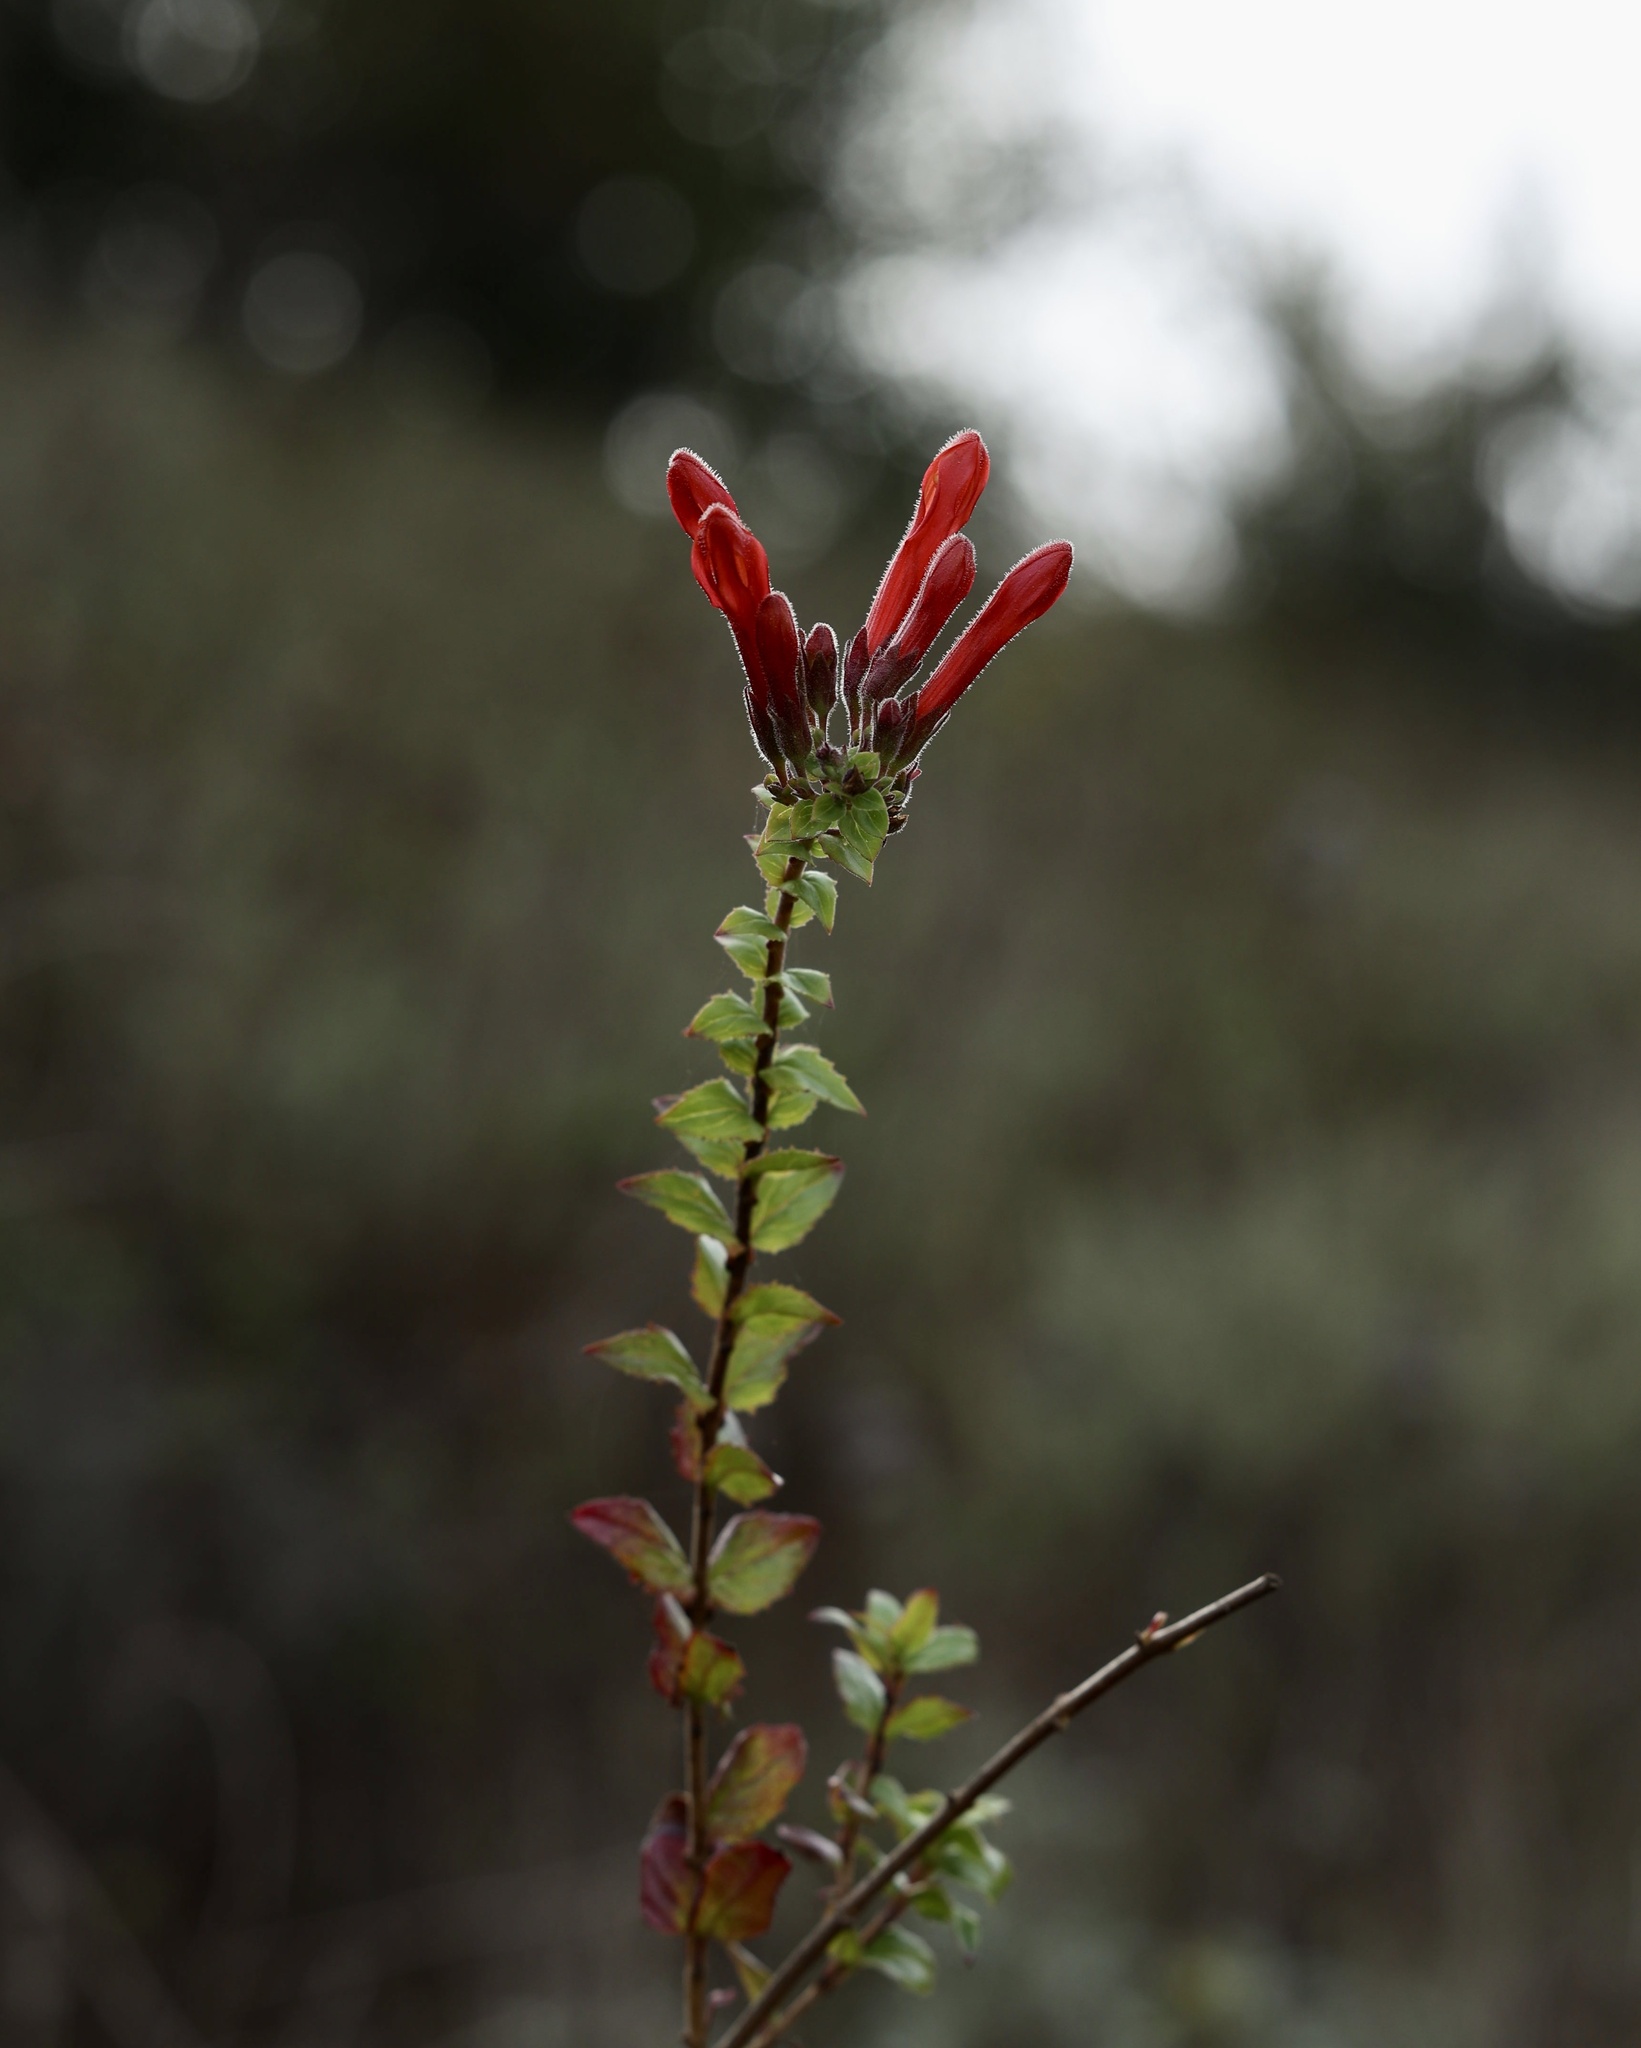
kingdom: Plantae
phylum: Tracheophyta
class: Magnoliopsida
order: Lamiales
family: Plantaginaceae
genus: Keckiella
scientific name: Keckiella cordifolia
